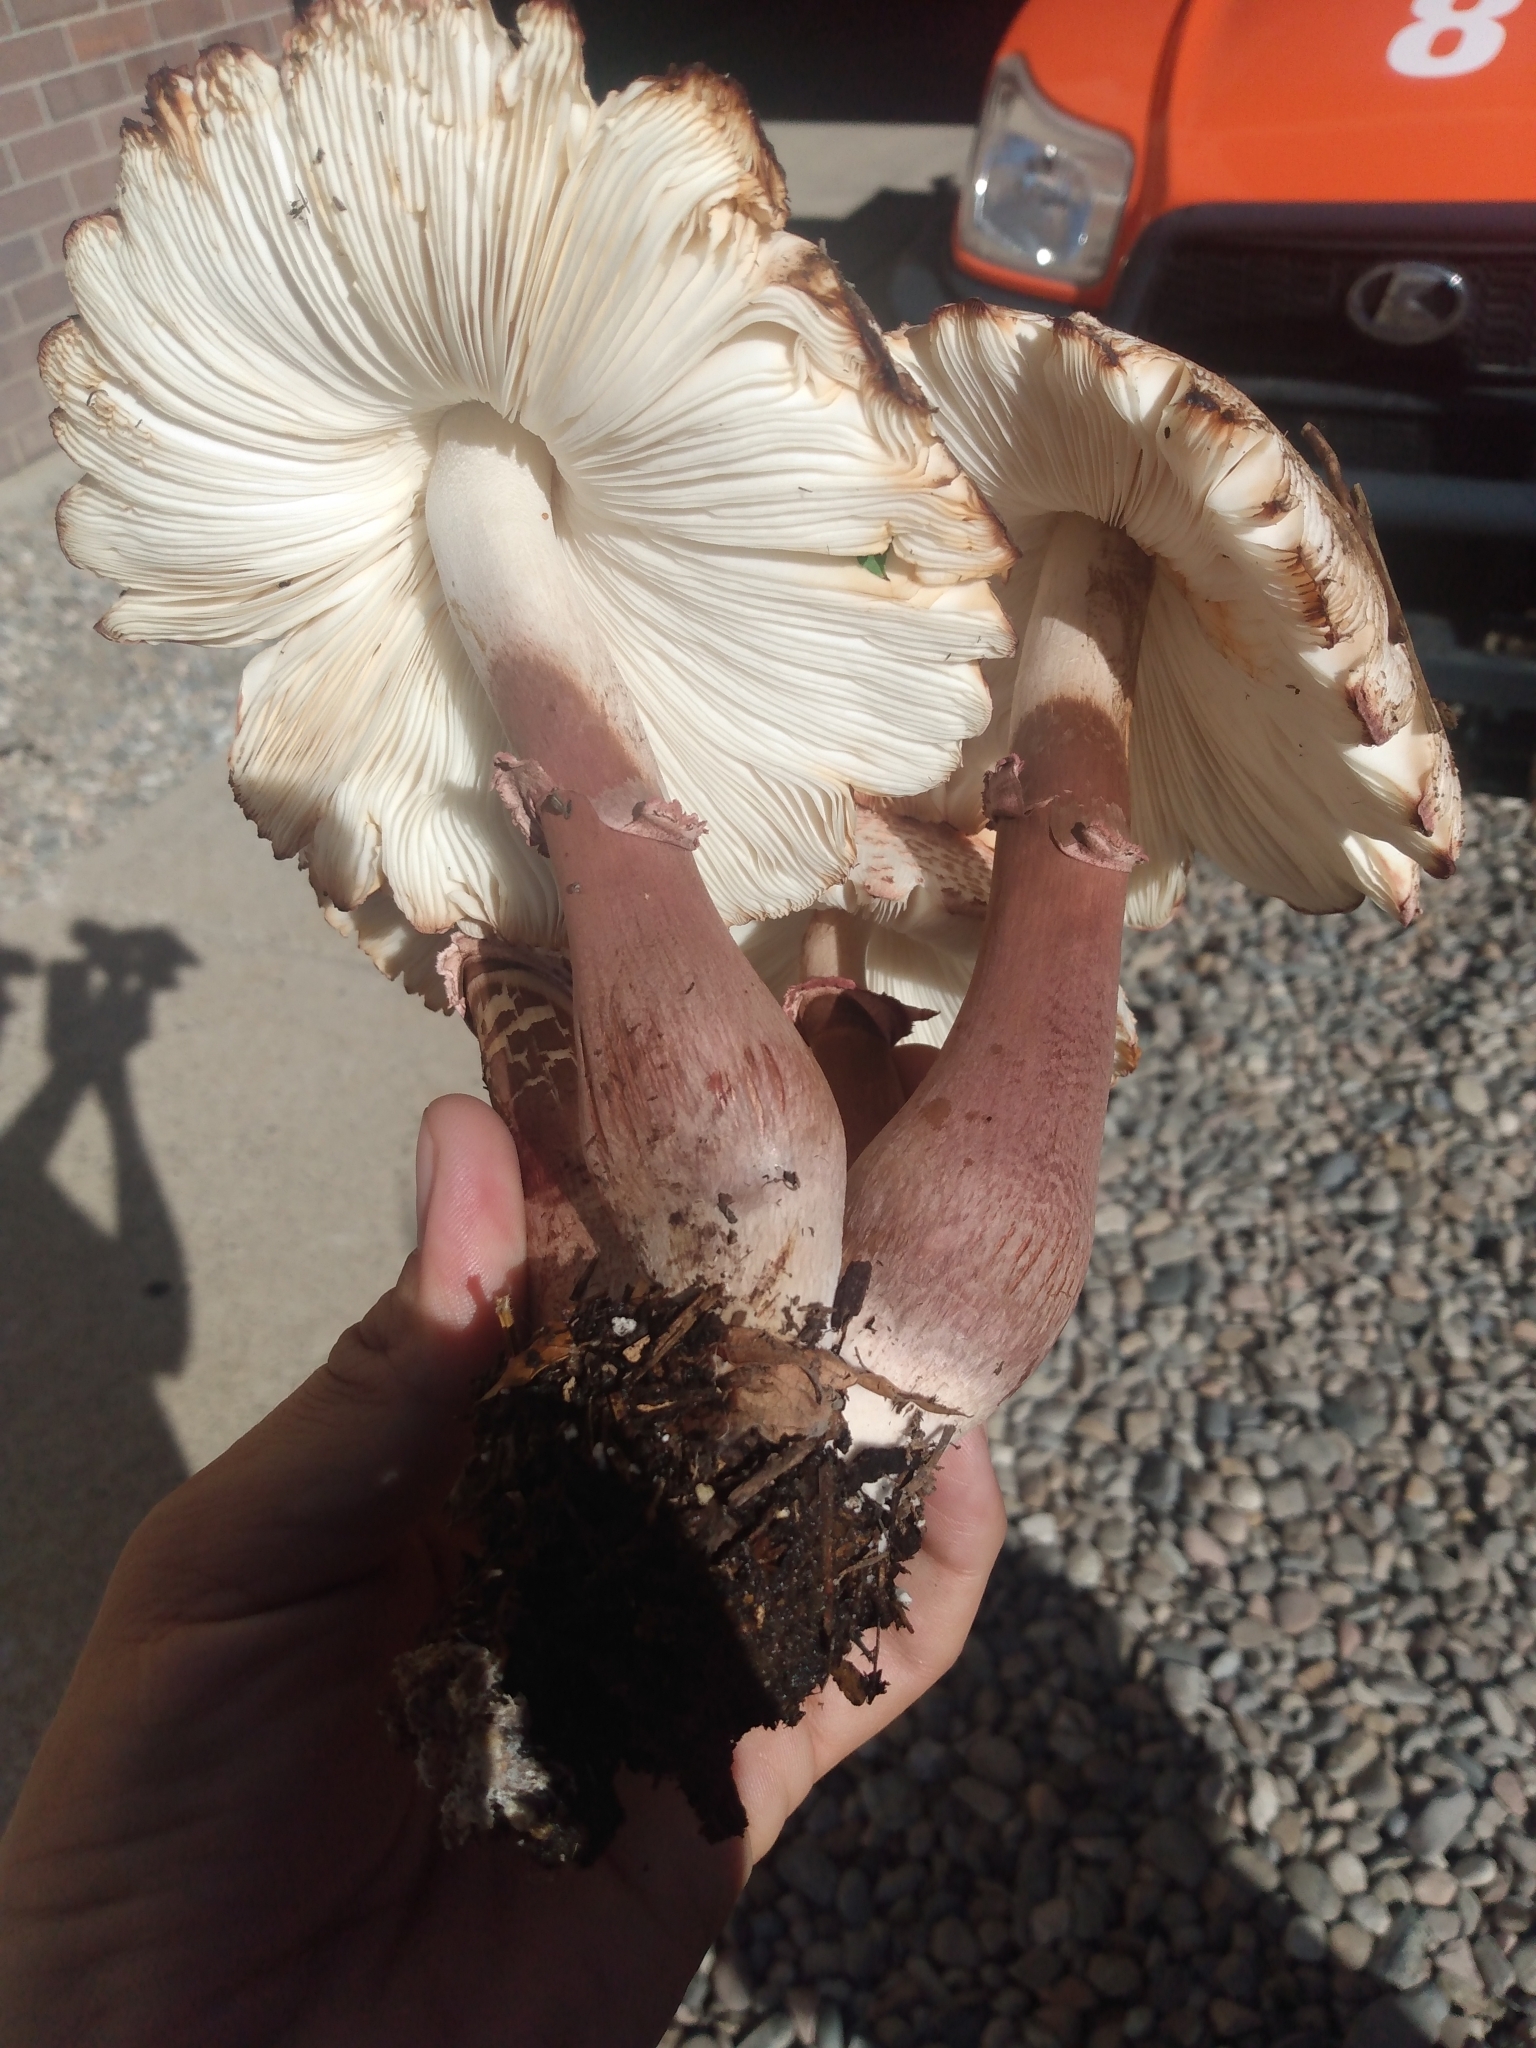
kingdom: Fungi
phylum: Basidiomycota
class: Agaricomycetes
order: Agaricales
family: Agaricaceae
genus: Leucoagaricus
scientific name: Leucoagaricus americanus
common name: Reddening lepiota
